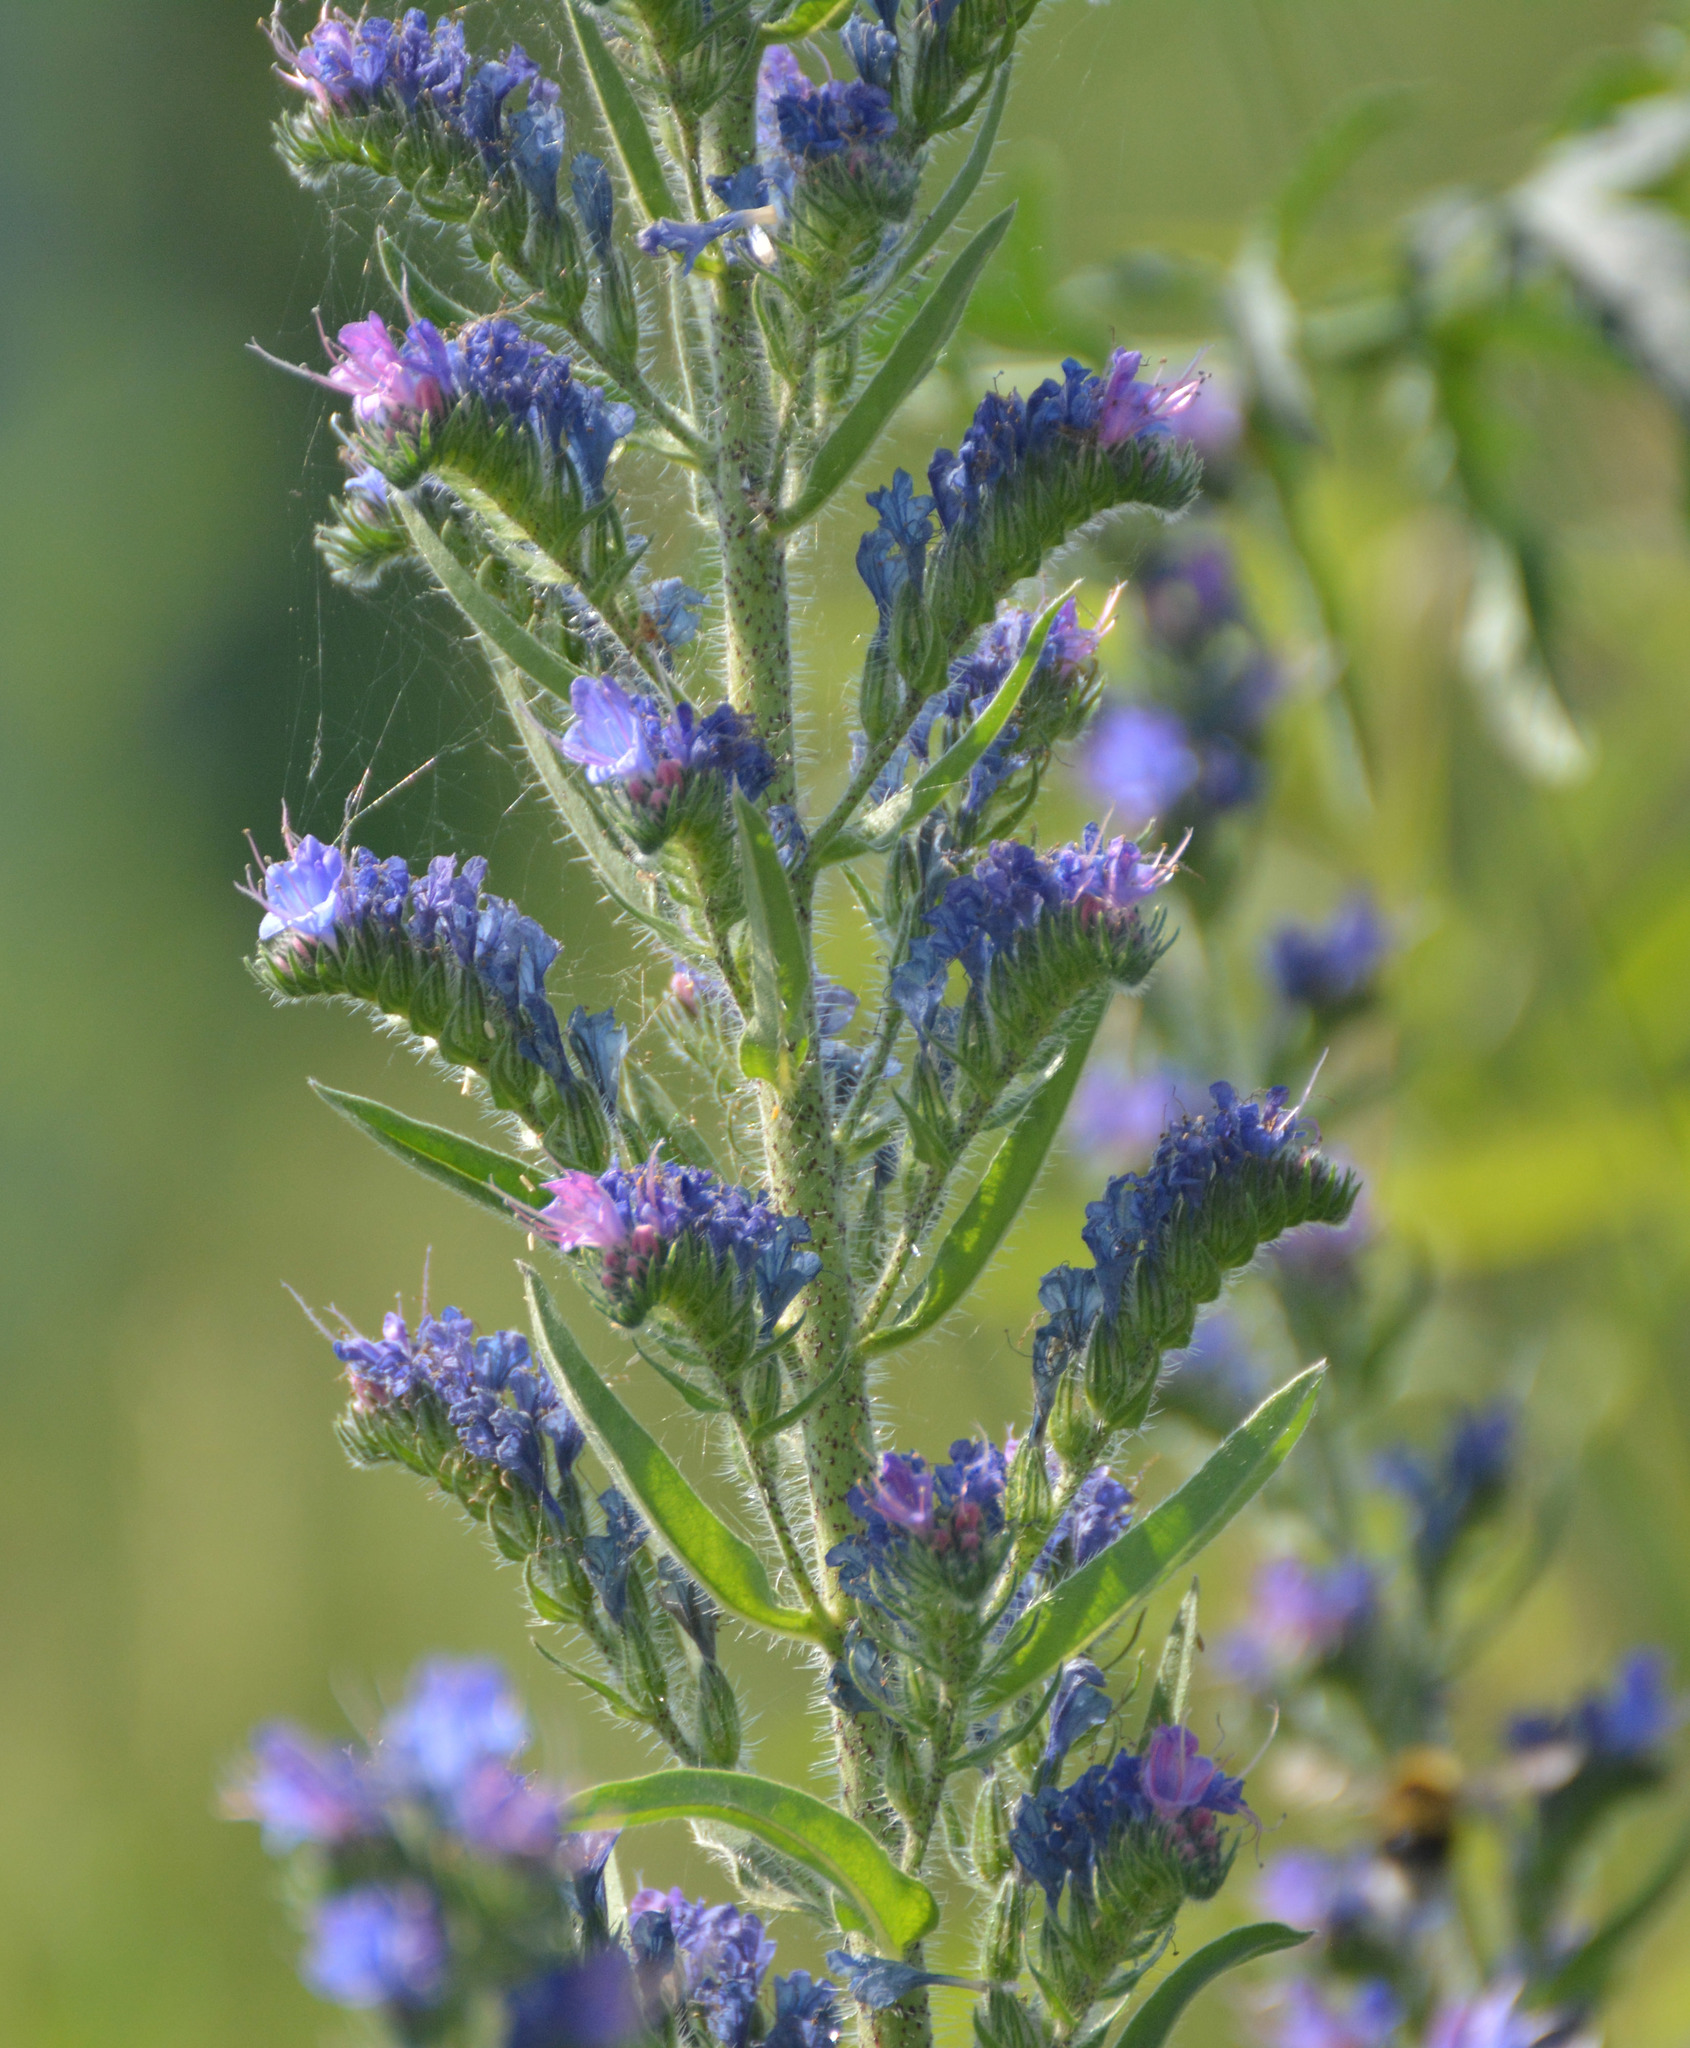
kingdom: Plantae
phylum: Tracheophyta
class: Magnoliopsida
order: Boraginales
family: Boraginaceae
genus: Echium
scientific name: Echium vulgare
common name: Common viper's bugloss
